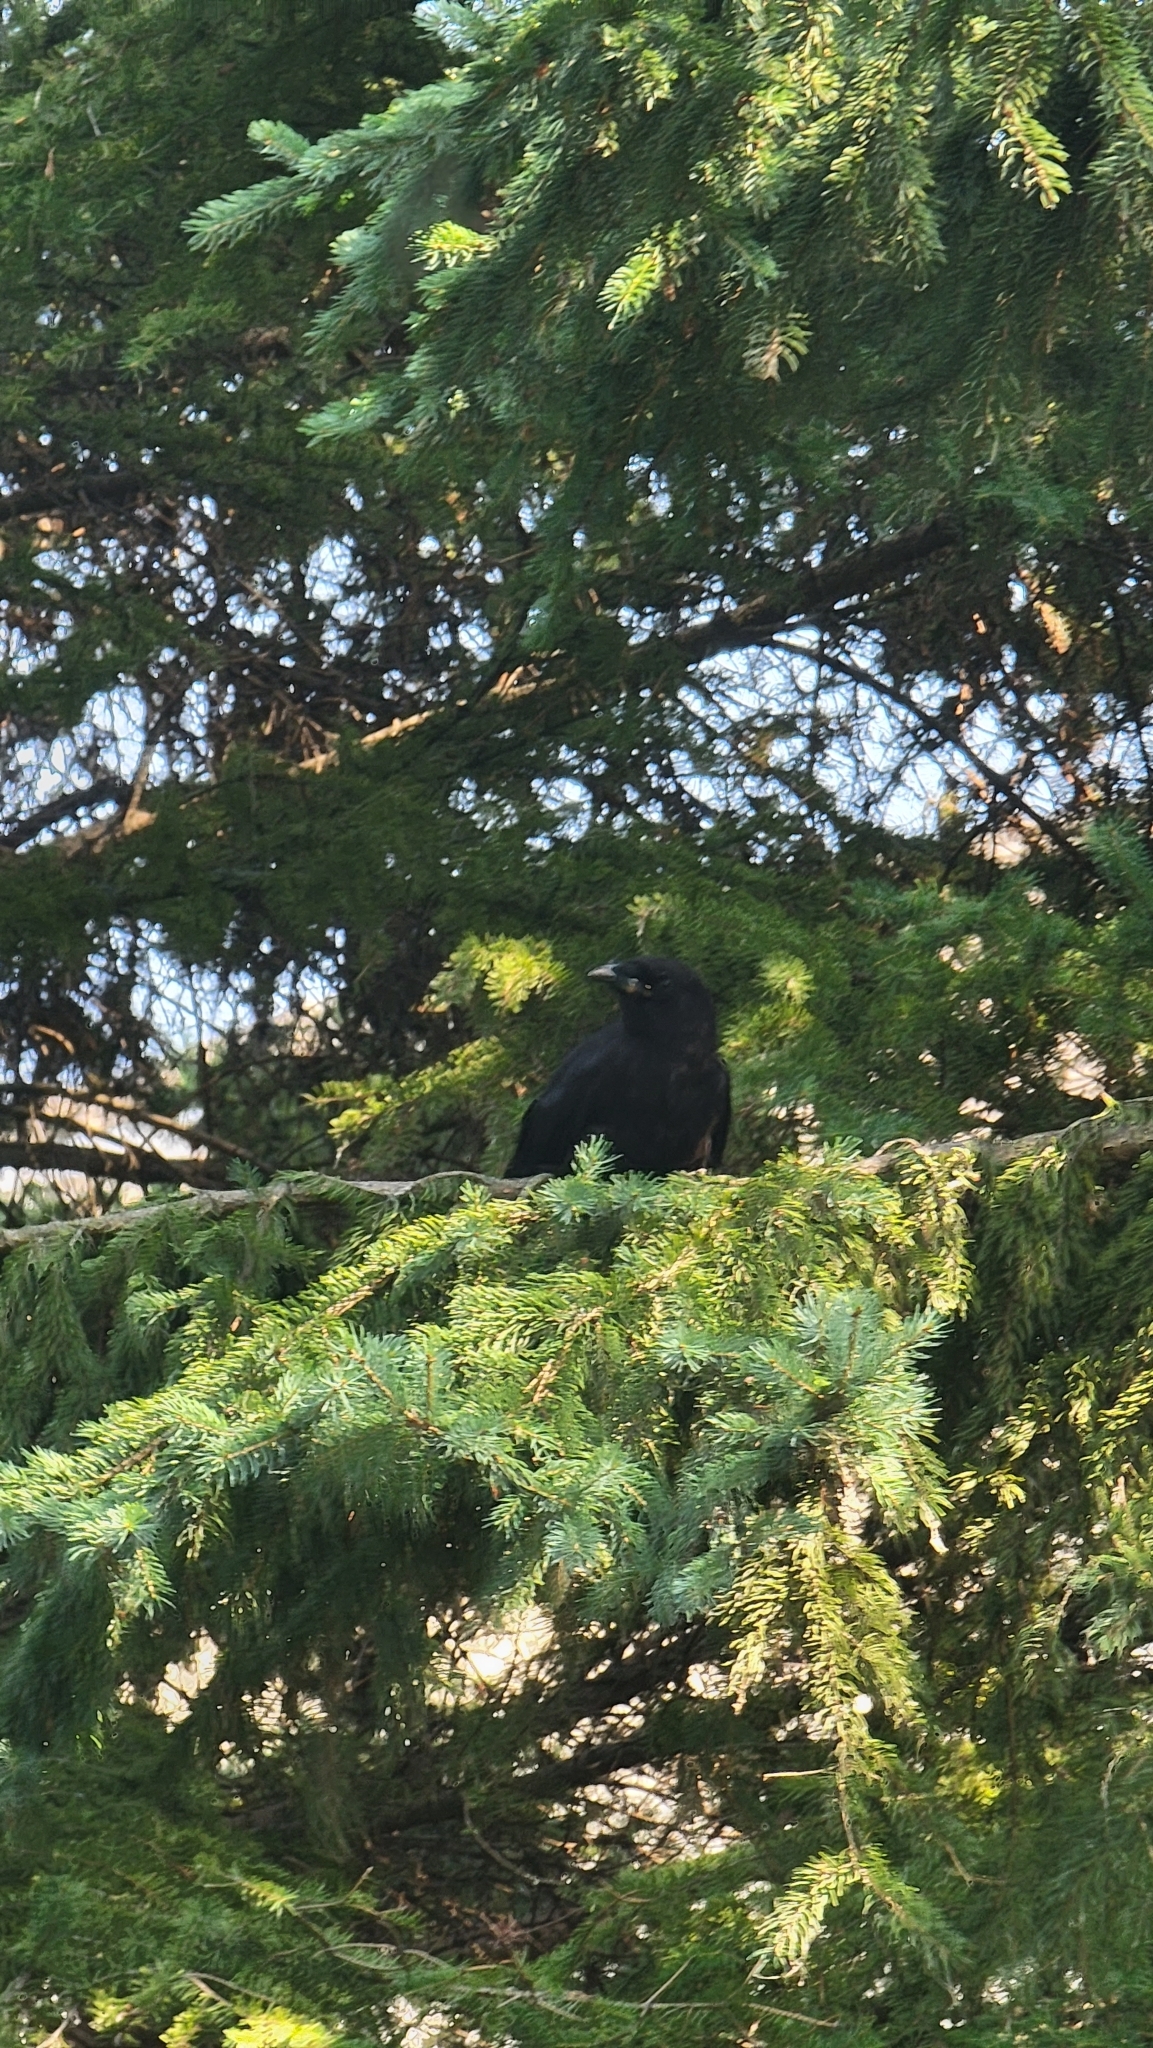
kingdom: Animalia
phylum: Chordata
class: Aves
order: Passeriformes
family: Corvidae
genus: Corvus
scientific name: Corvus brachyrhynchos
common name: American crow
